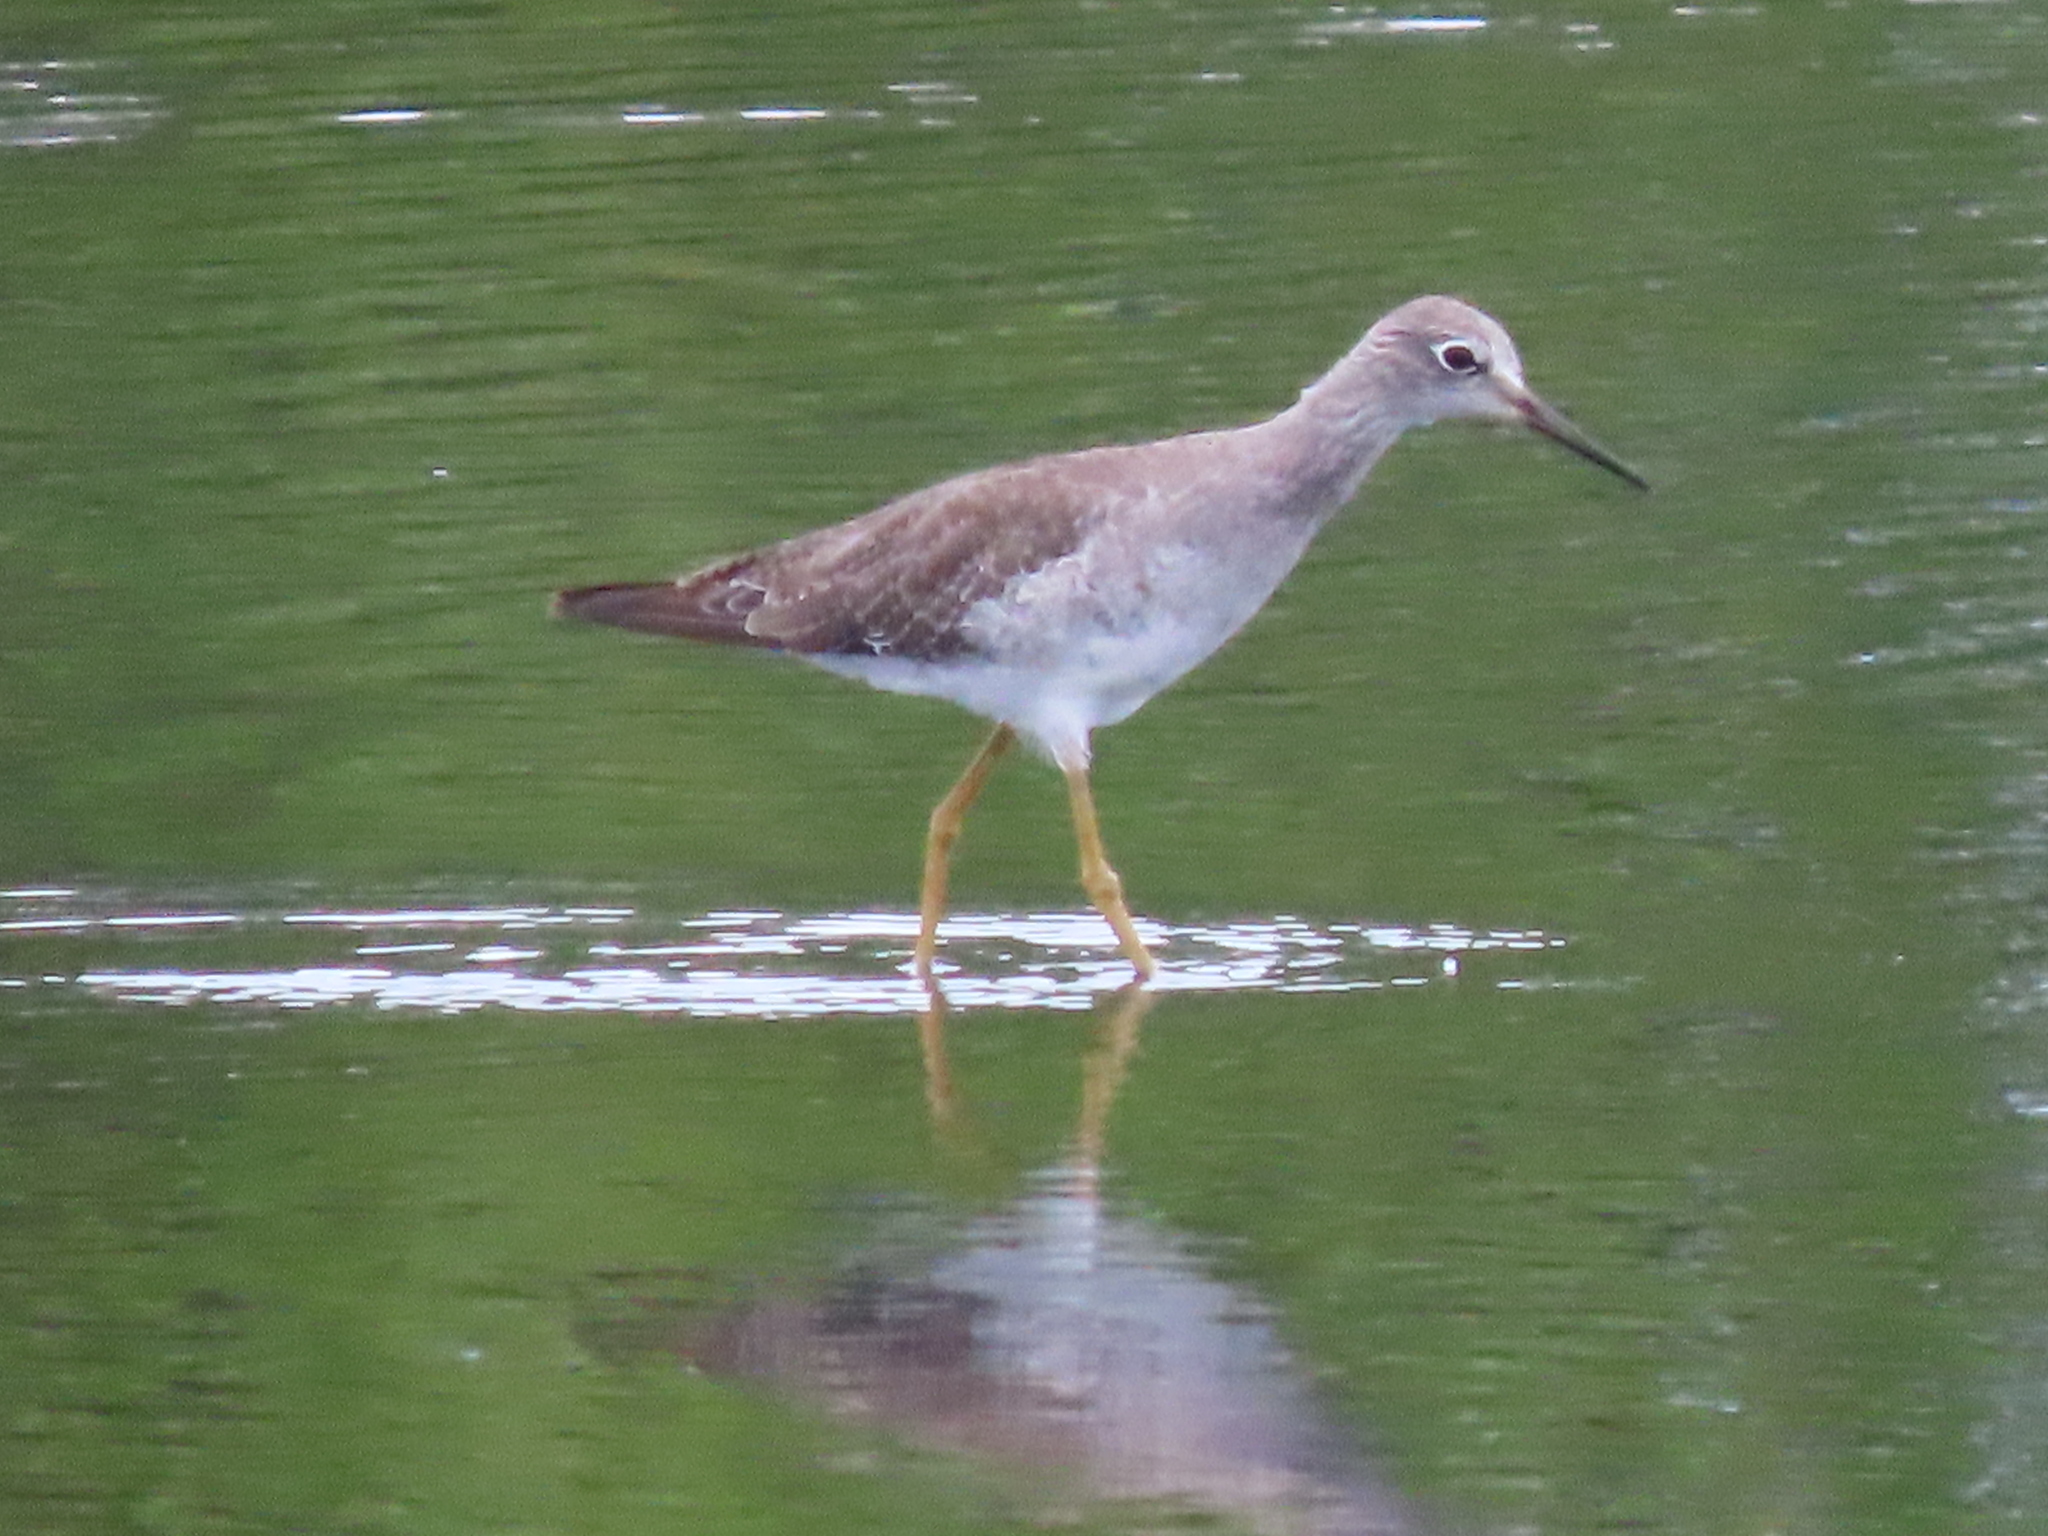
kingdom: Animalia
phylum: Chordata
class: Aves
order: Charadriiformes
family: Scolopacidae
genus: Tringa
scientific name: Tringa flavipes
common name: Lesser yellowlegs
